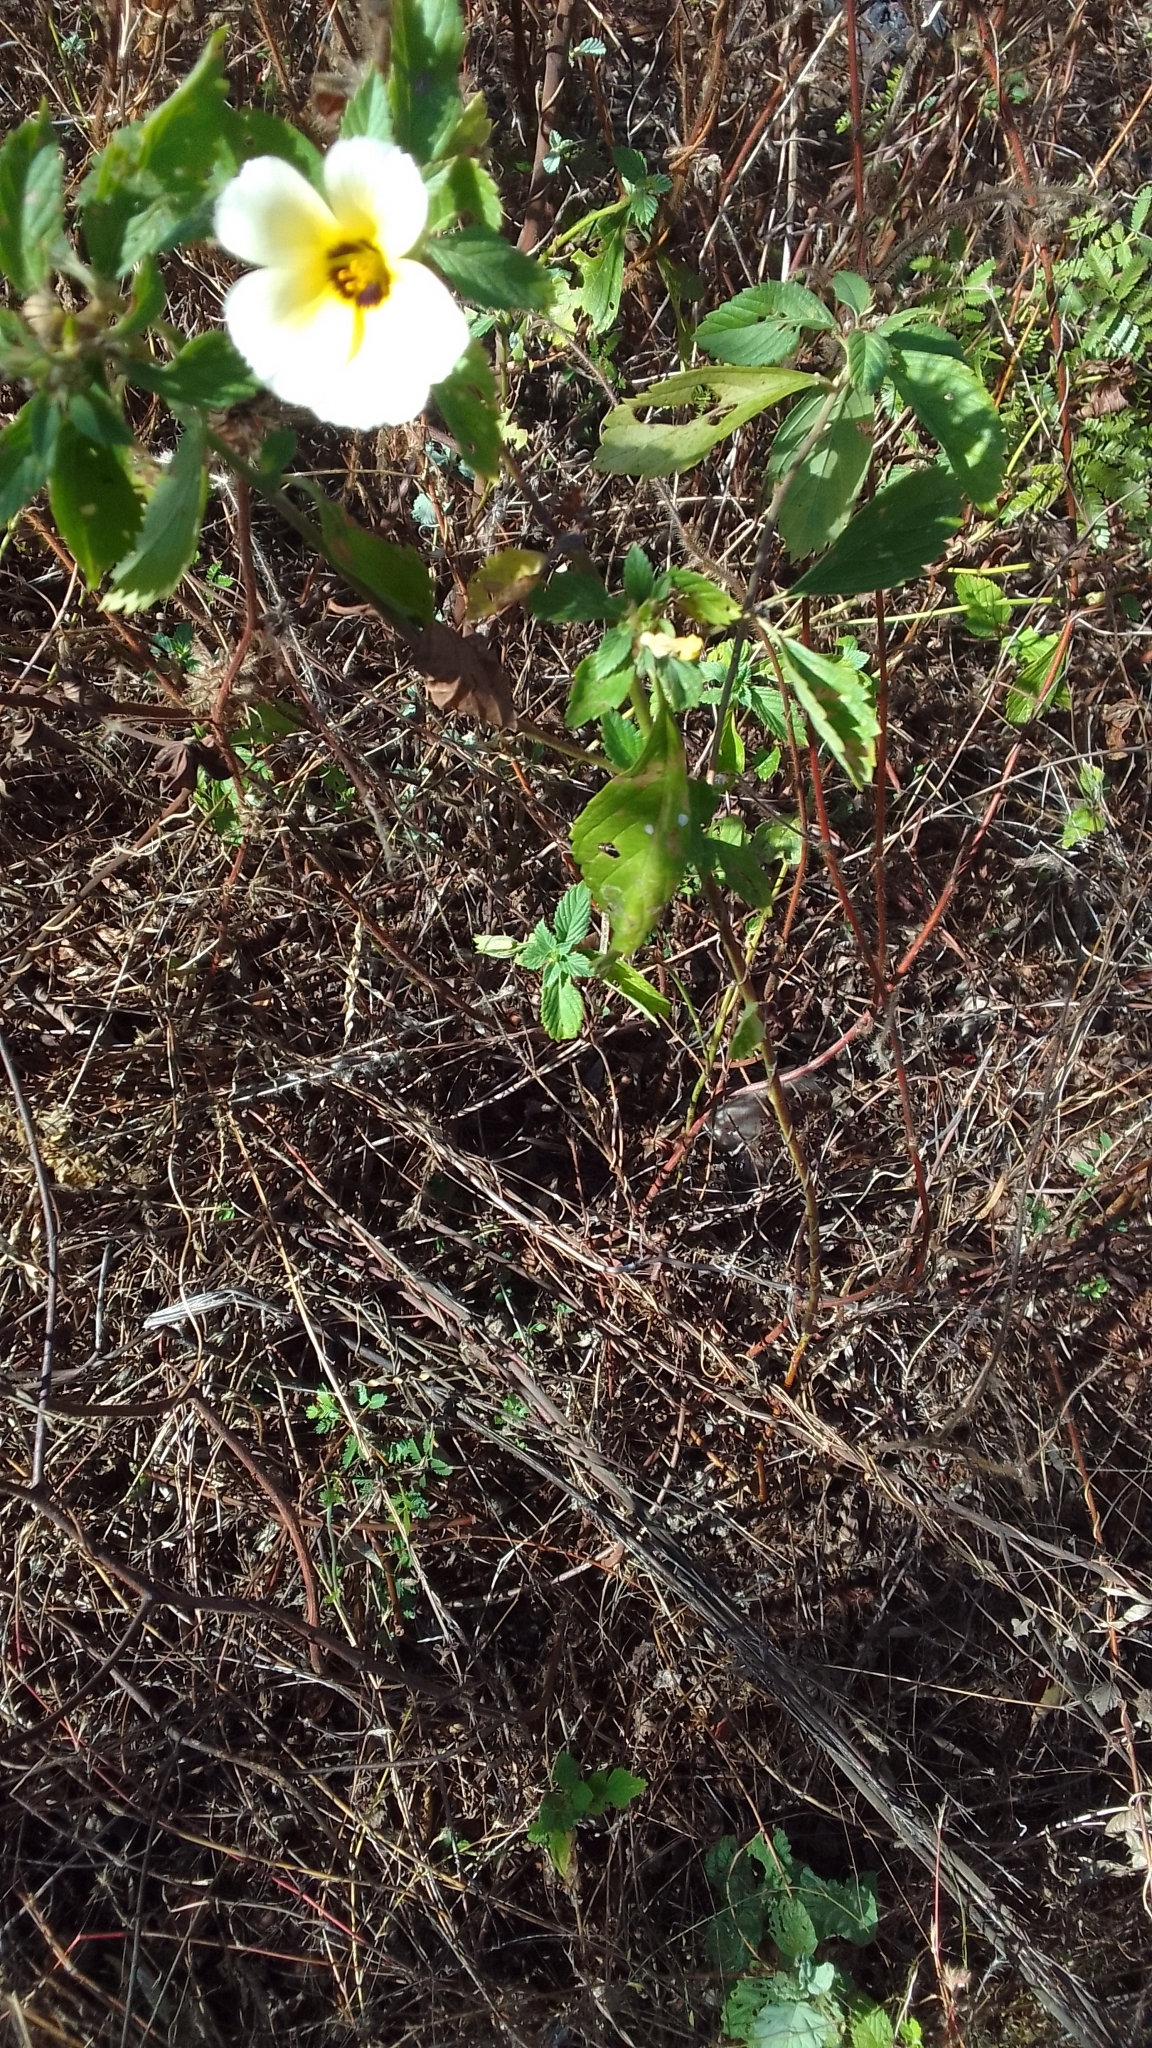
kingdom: Plantae
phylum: Tracheophyta
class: Magnoliopsida
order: Malpighiales
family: Turneraceae
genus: Turnera
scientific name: Turnera subulata
